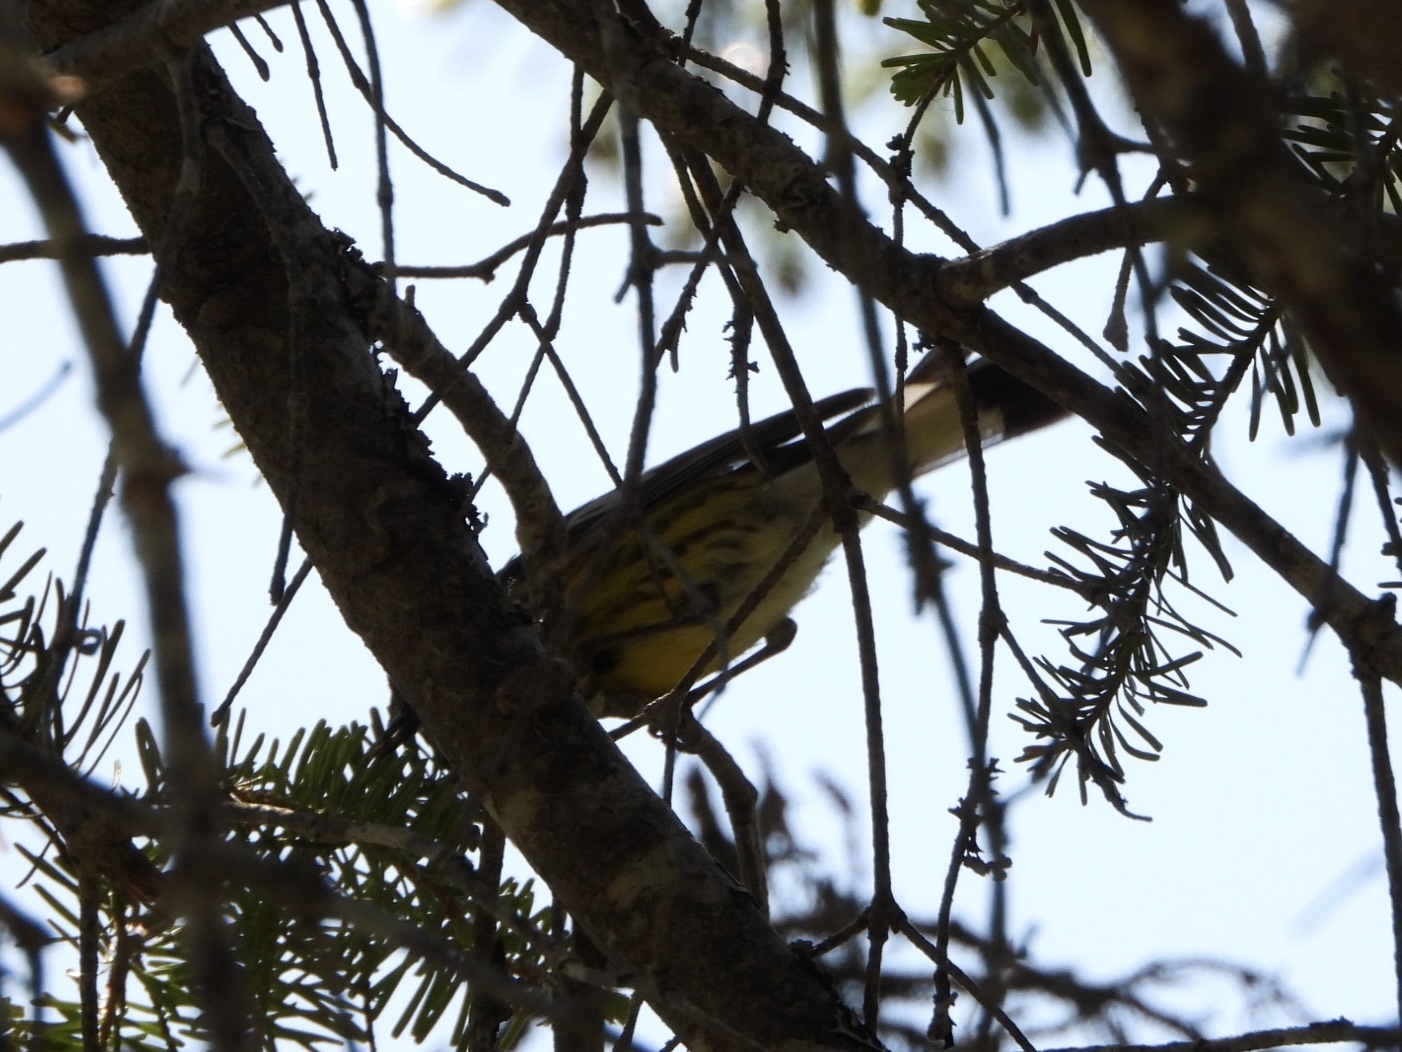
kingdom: Animalia
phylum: Chordata
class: Aves
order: Passeriformes
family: Parulidae
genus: Setophaga
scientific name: Setophaga magnolia
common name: Magnolia warbler
